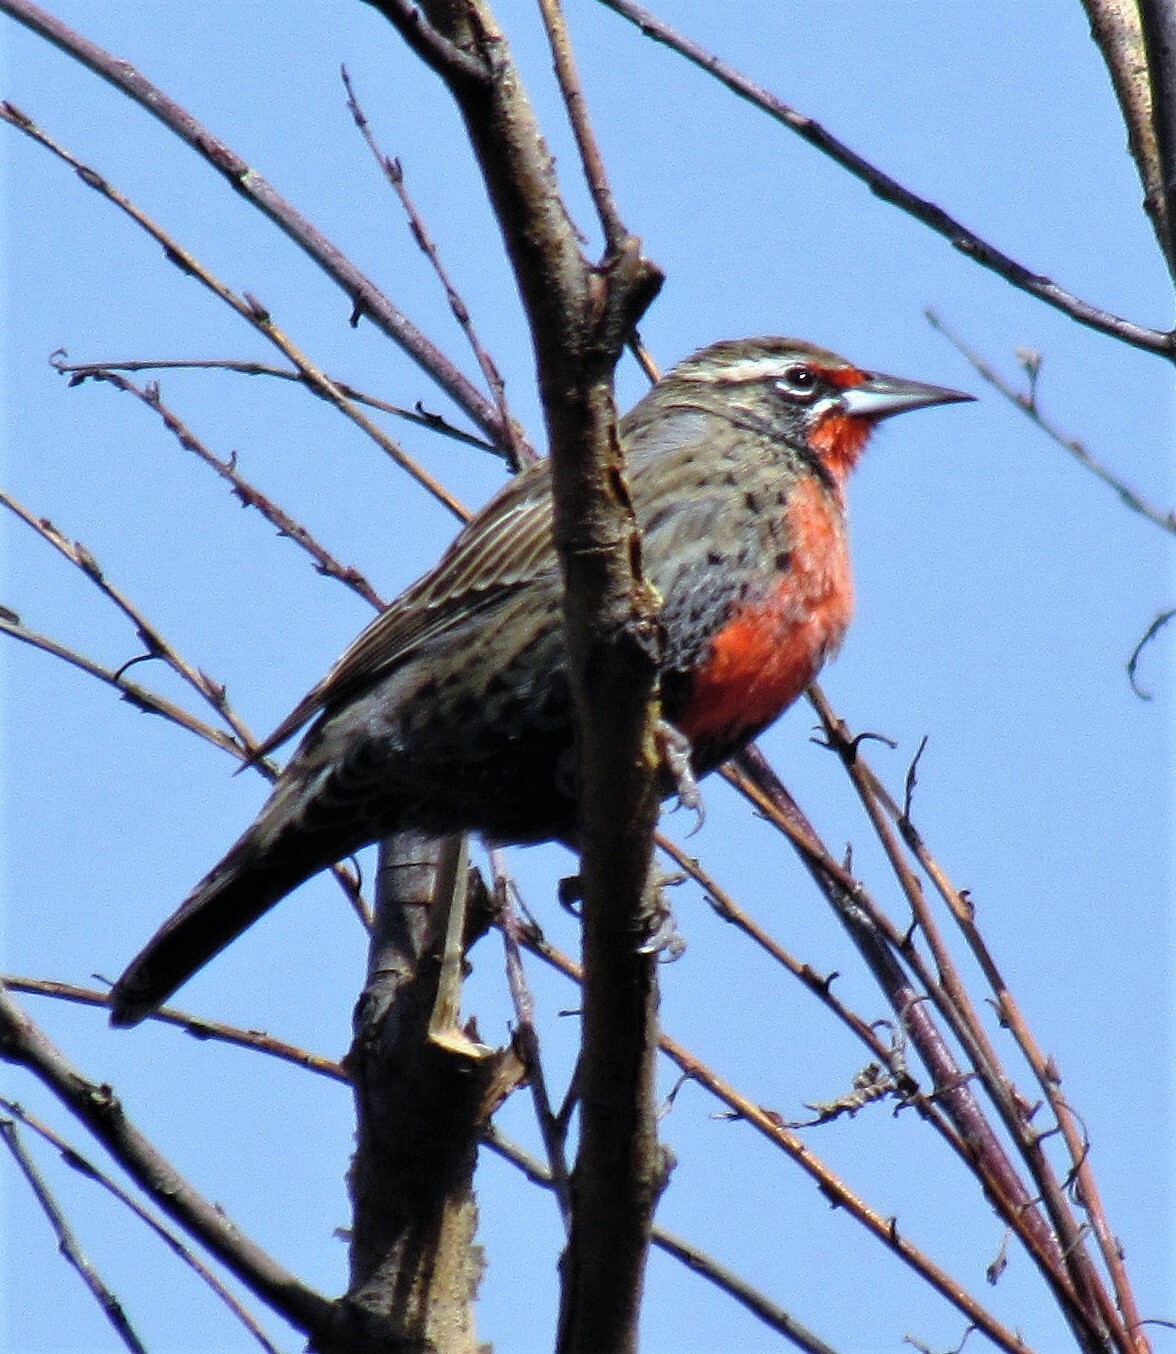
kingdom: Animalia
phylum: Chordata
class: Aves
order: Passeriformes
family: Icteridae
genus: Sturnella
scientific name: Sturnella loyca
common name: Long-tailed meadowlark
